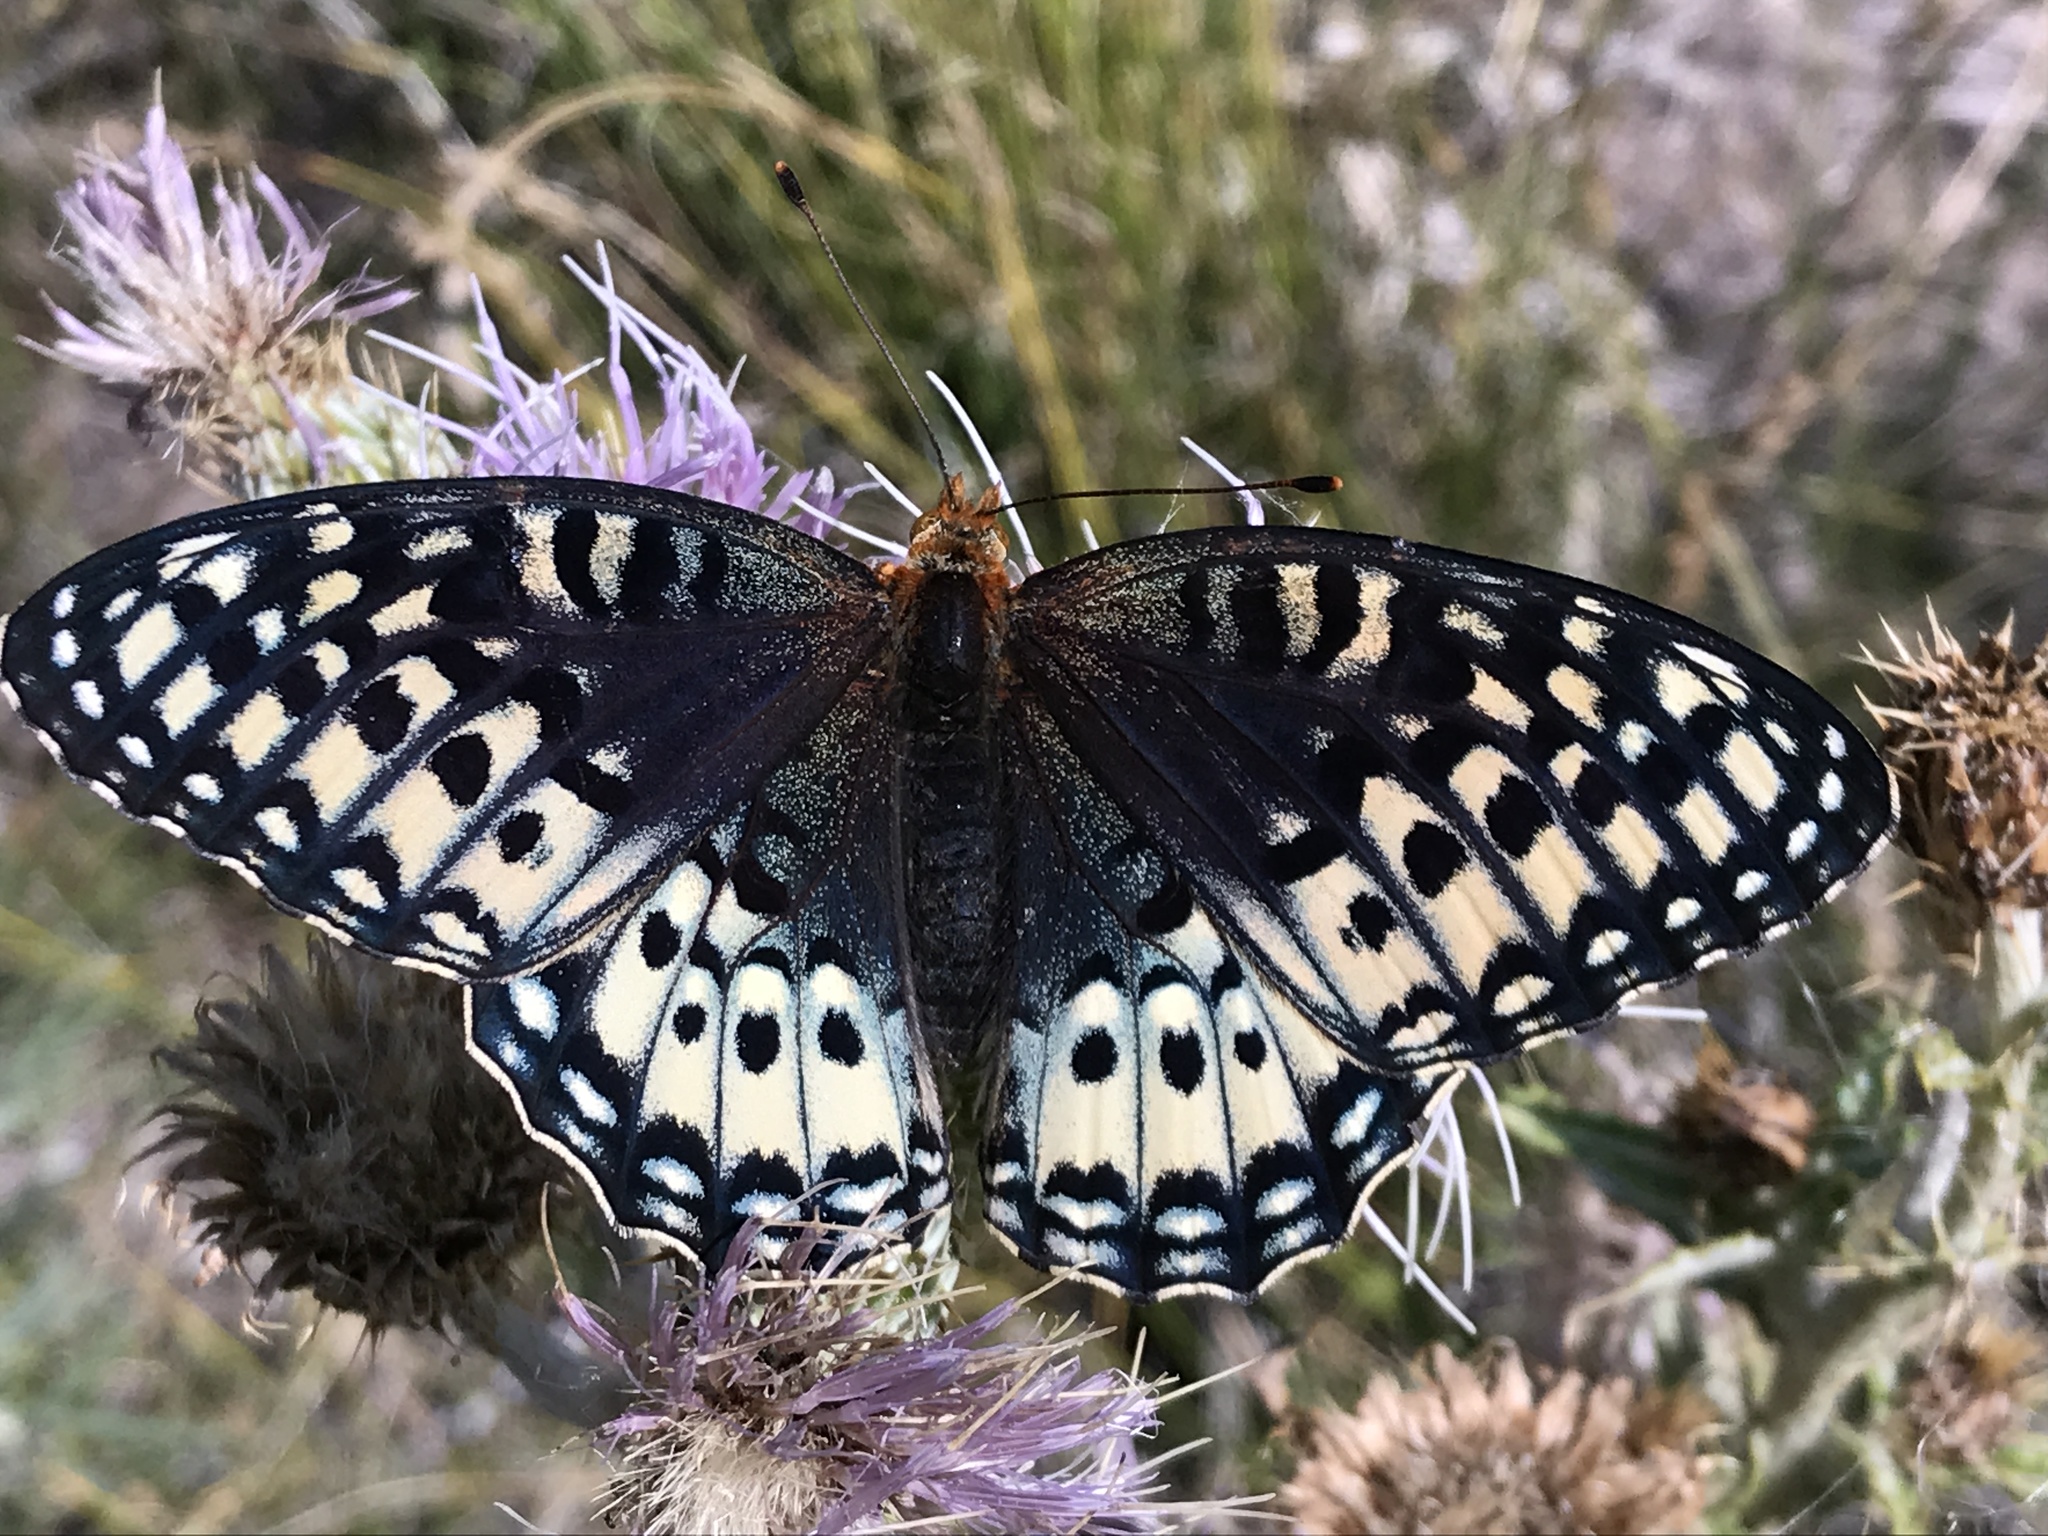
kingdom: Animalia
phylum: Arthropoda
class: Insecta
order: Lepidoptera
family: Nymphalidae
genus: Speyeria
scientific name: Speyeria nokomis
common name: Nokomis fritillary
